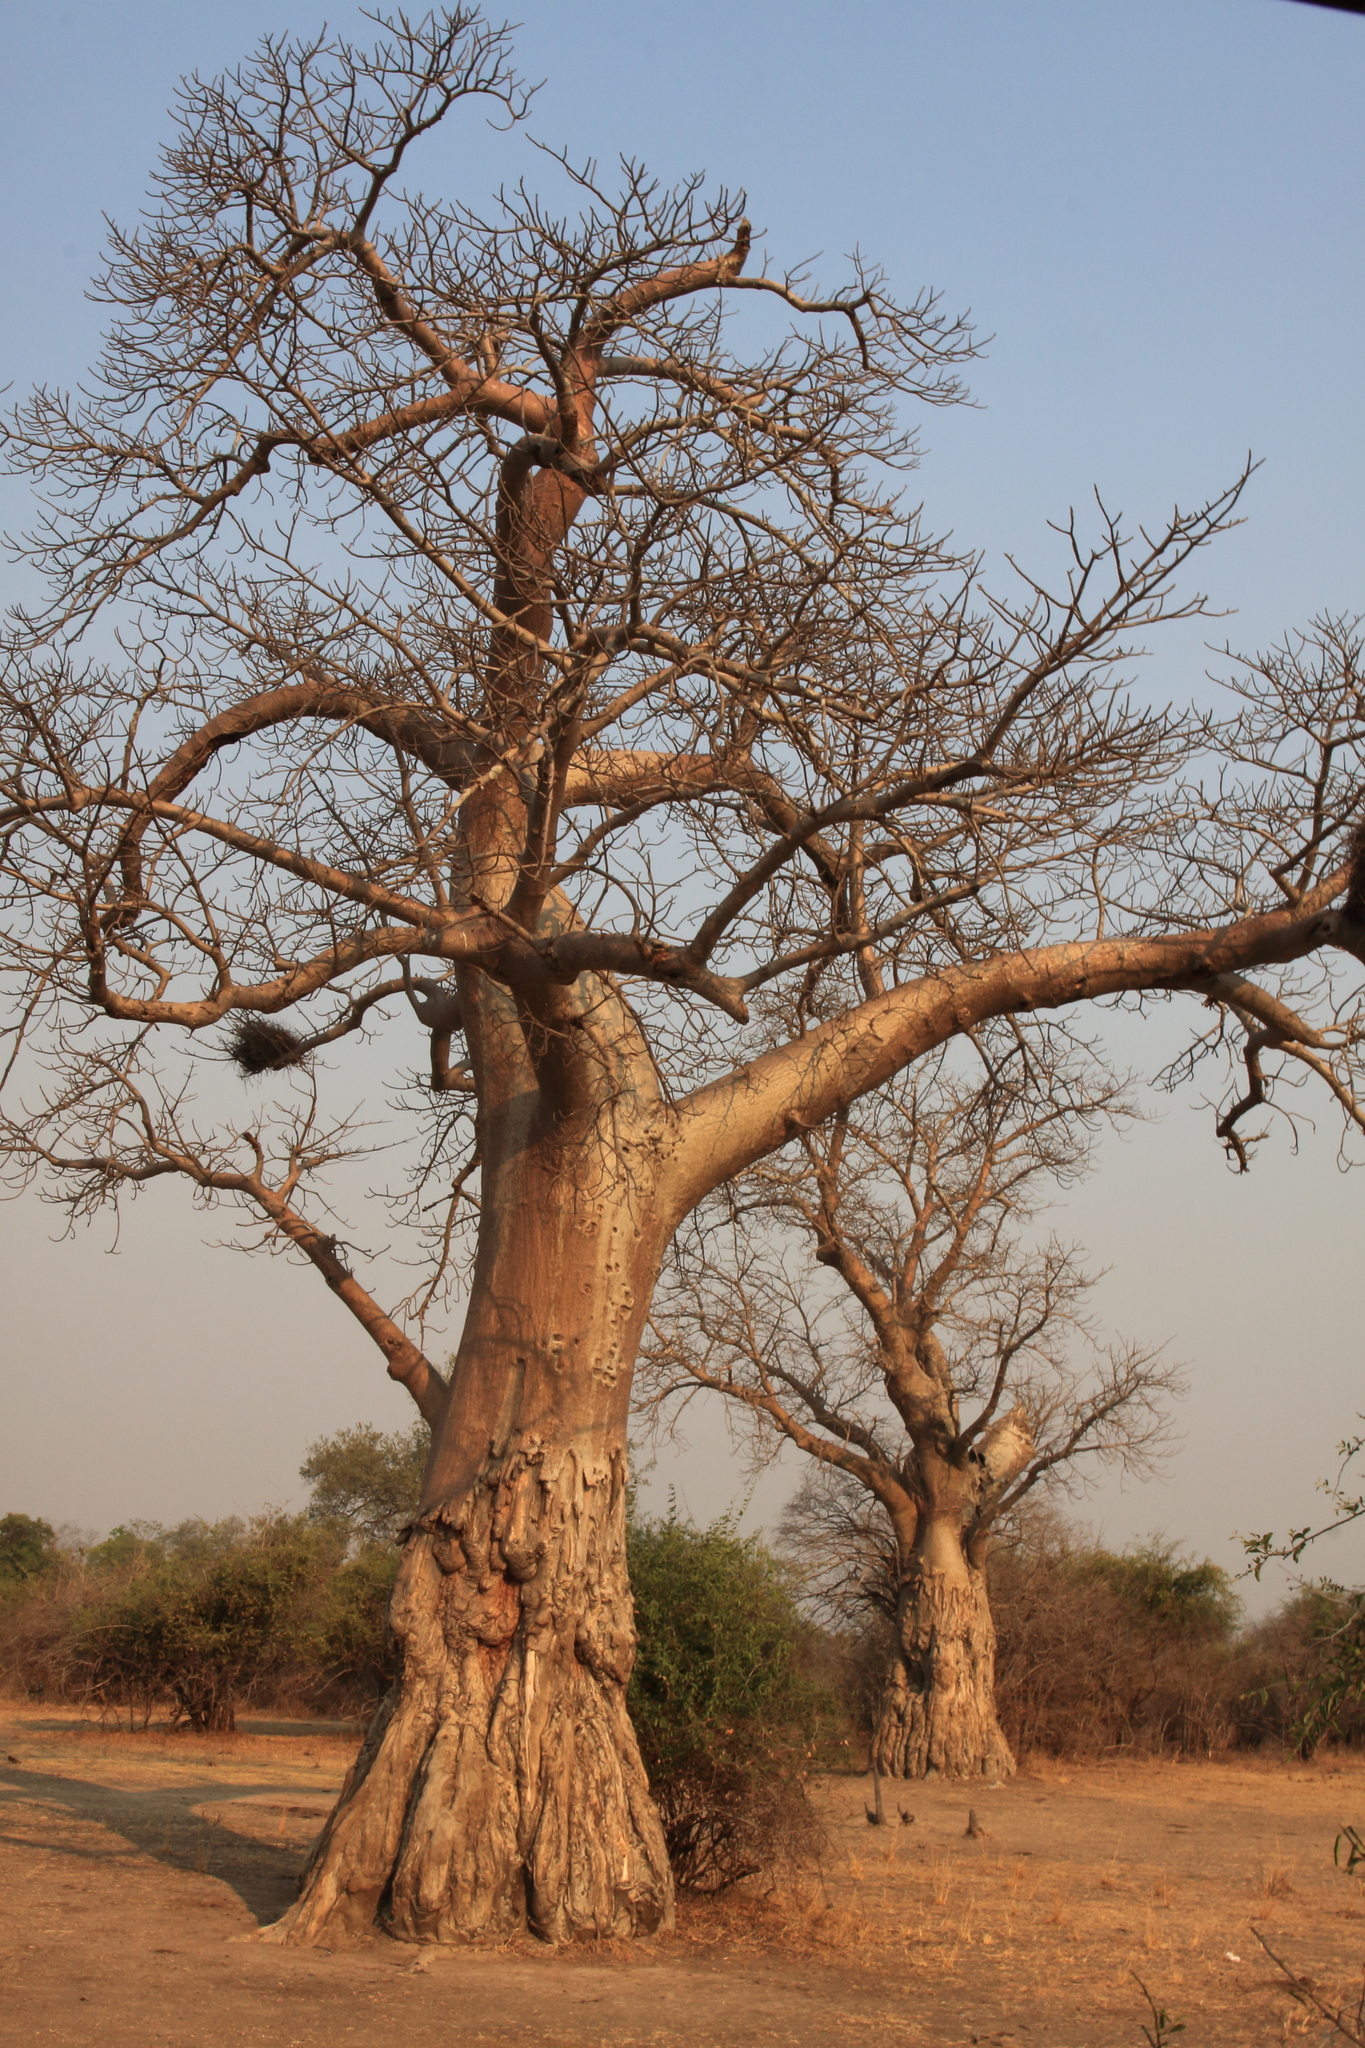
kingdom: Plantae
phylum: Tracheophyta
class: Magnoliopsida
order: Malvales
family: Malvaceae
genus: Adansonia
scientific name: Adansonia digitata
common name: Dead-rat-tree
